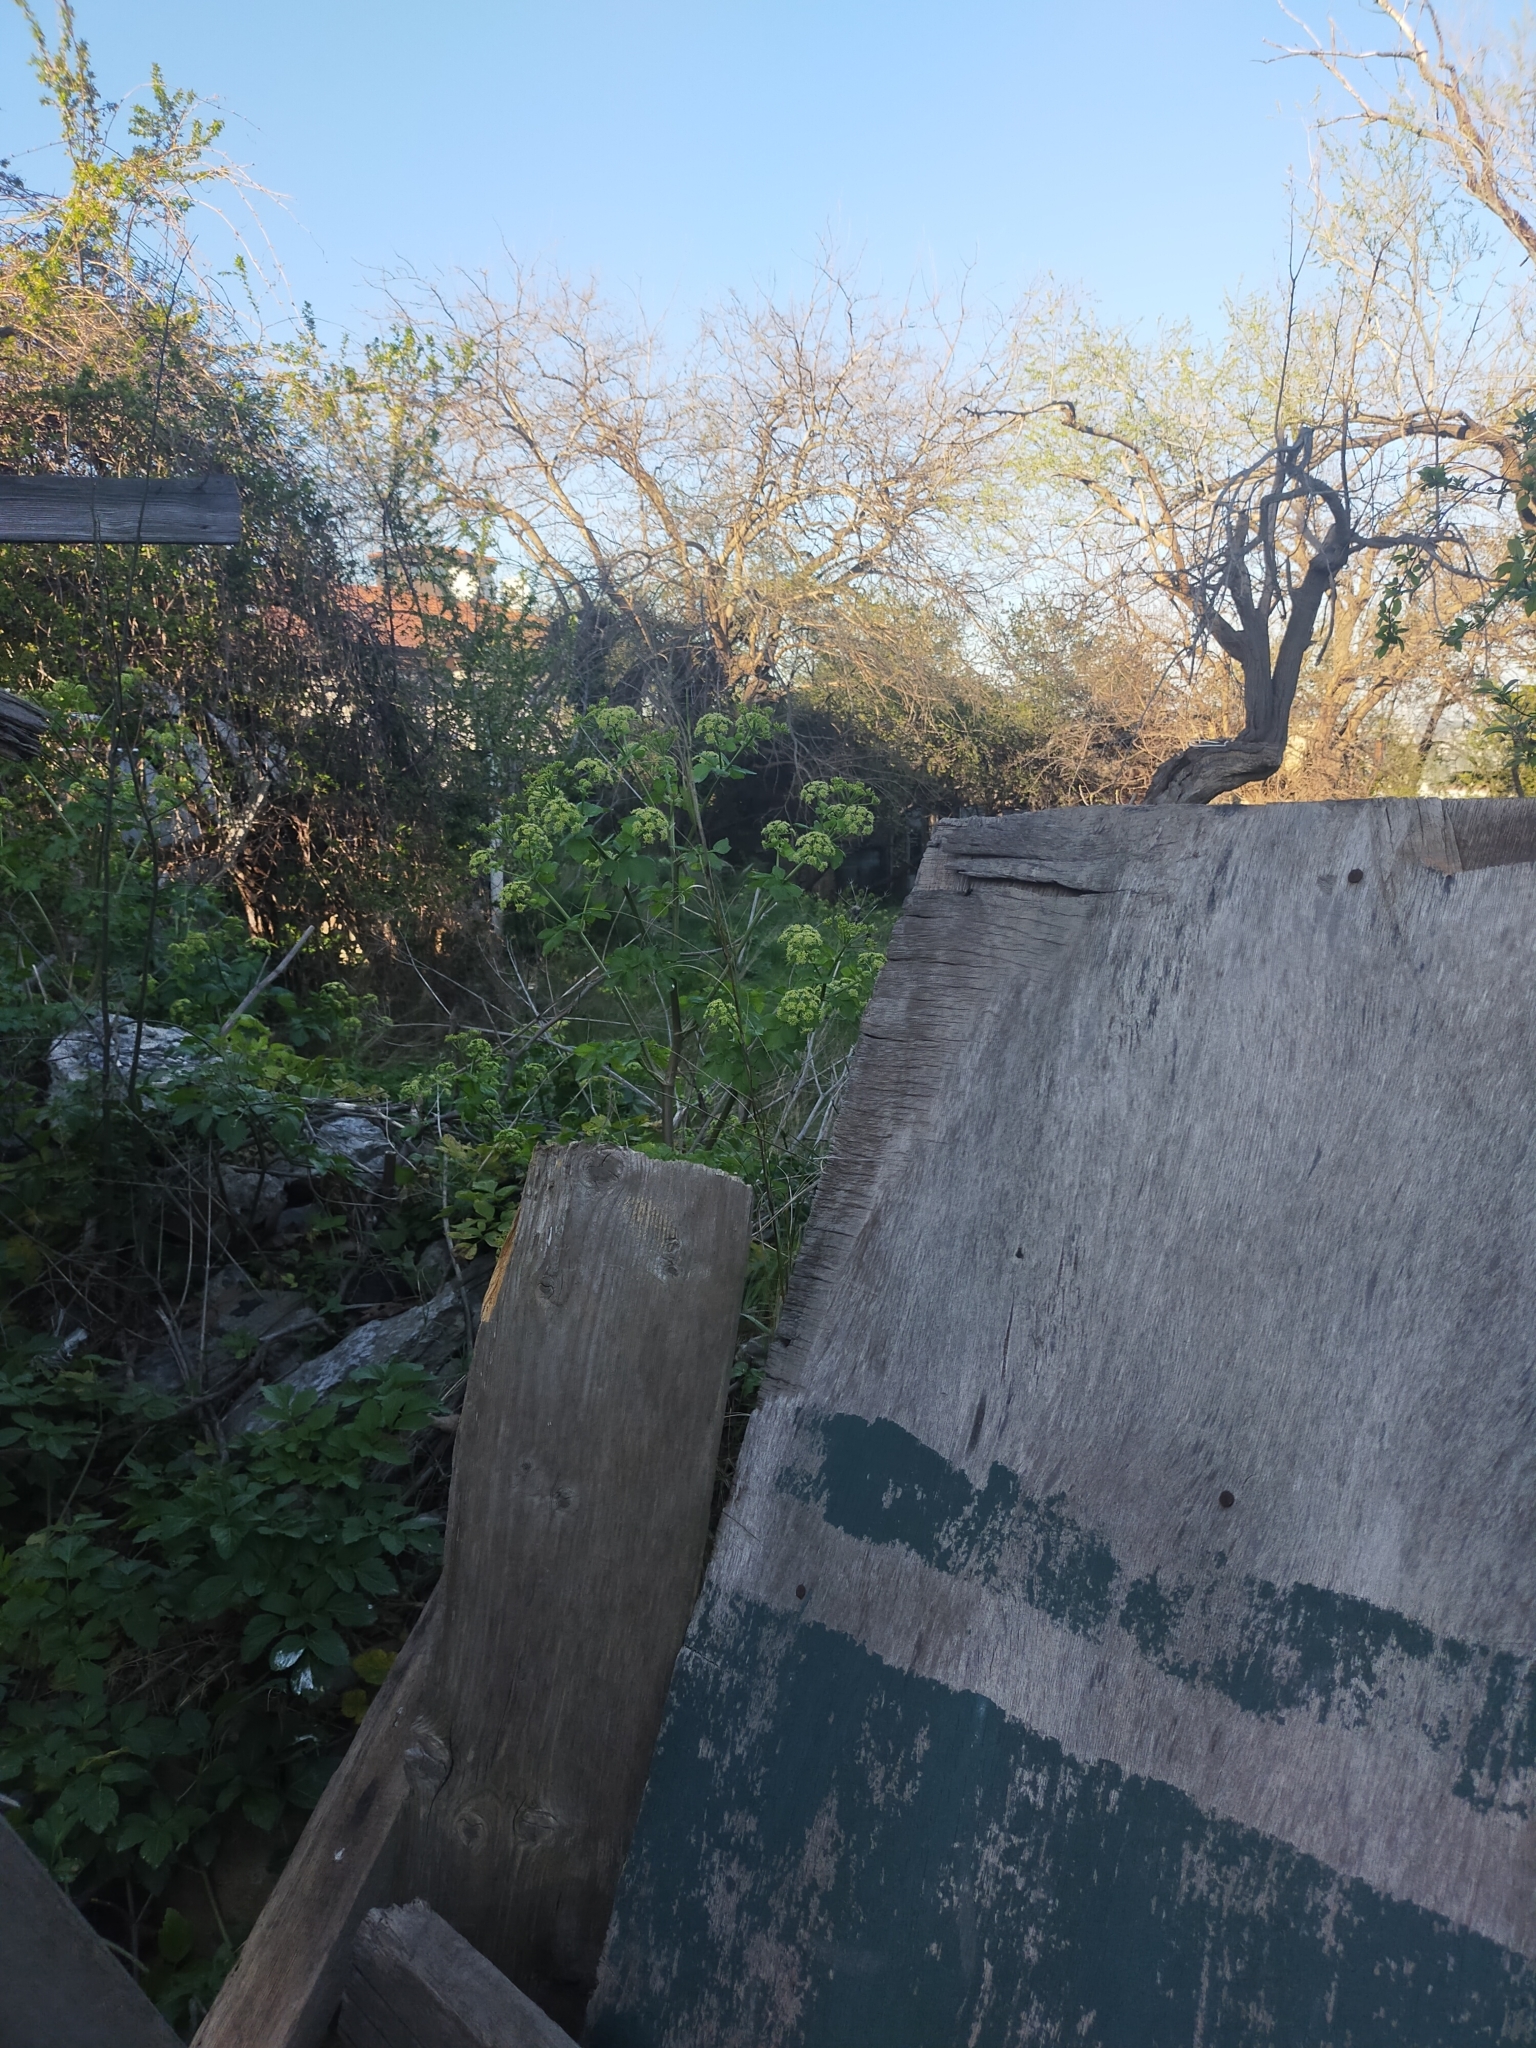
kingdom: Plantae
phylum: Tracheophyta
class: Magnoliopsida
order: Apiales
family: Apiaceae
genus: Smyrnium
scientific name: Smyrnium olusatrum
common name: Alexanders
